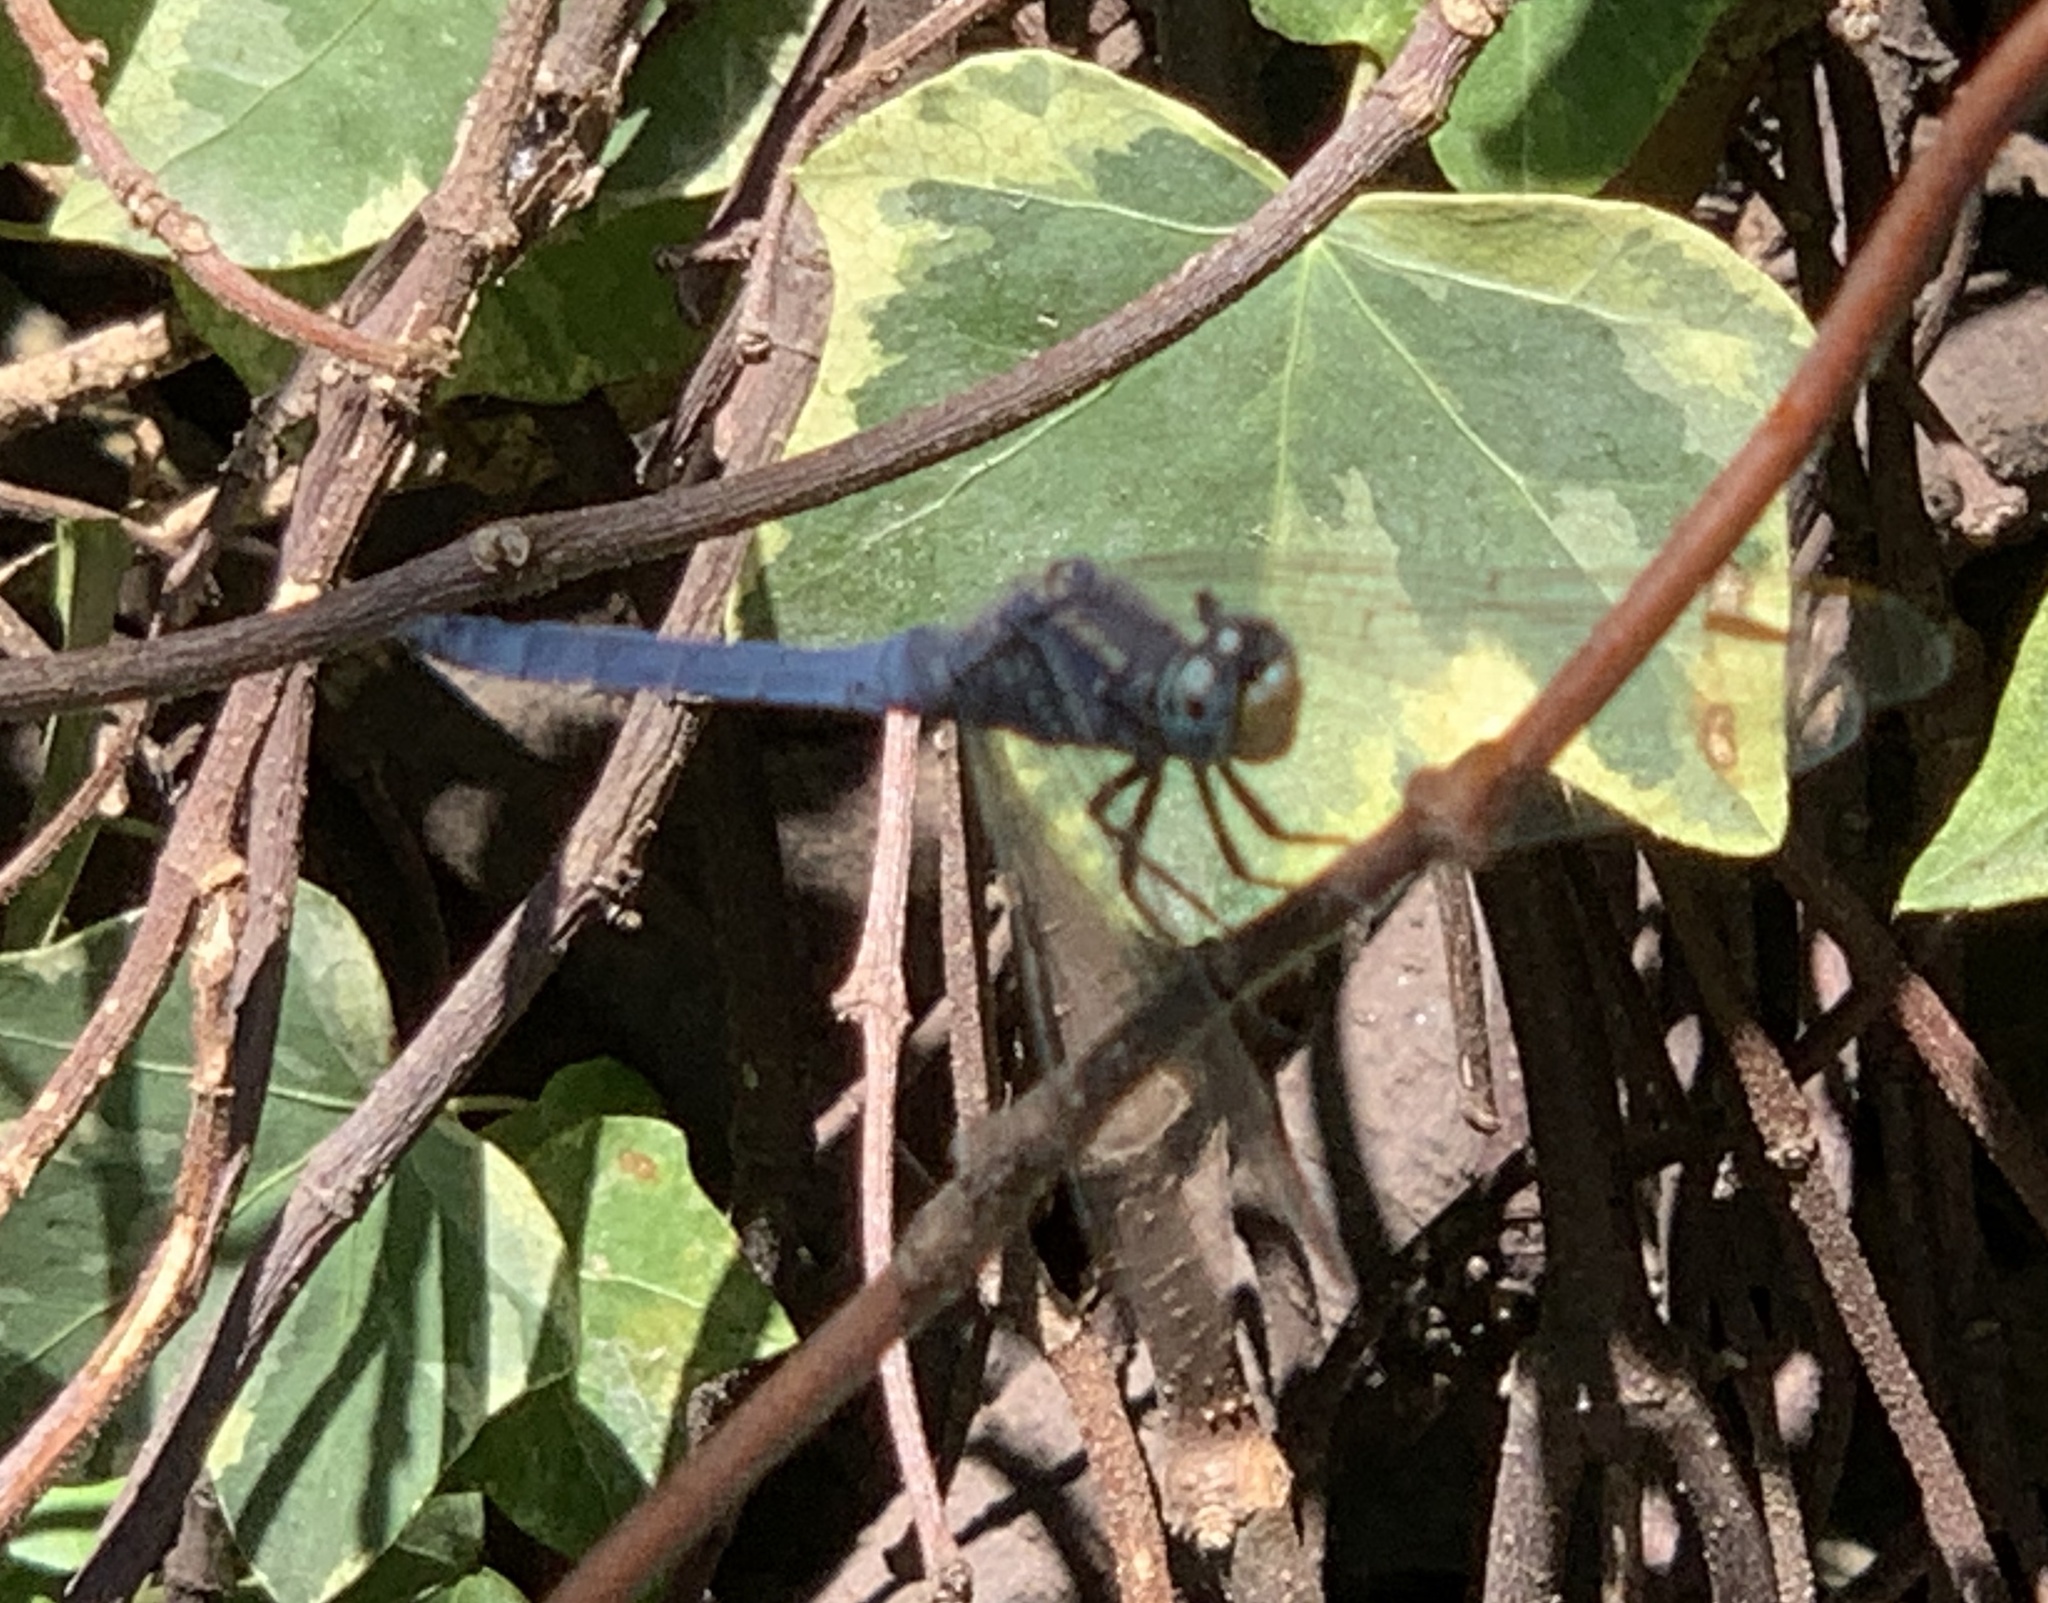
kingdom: Animalia
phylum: Arthropoda
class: Insecta
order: Odonata
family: Libellulidae
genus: Orthetrum
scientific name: Orthetrum coerulescens
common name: Keeled skimmer
